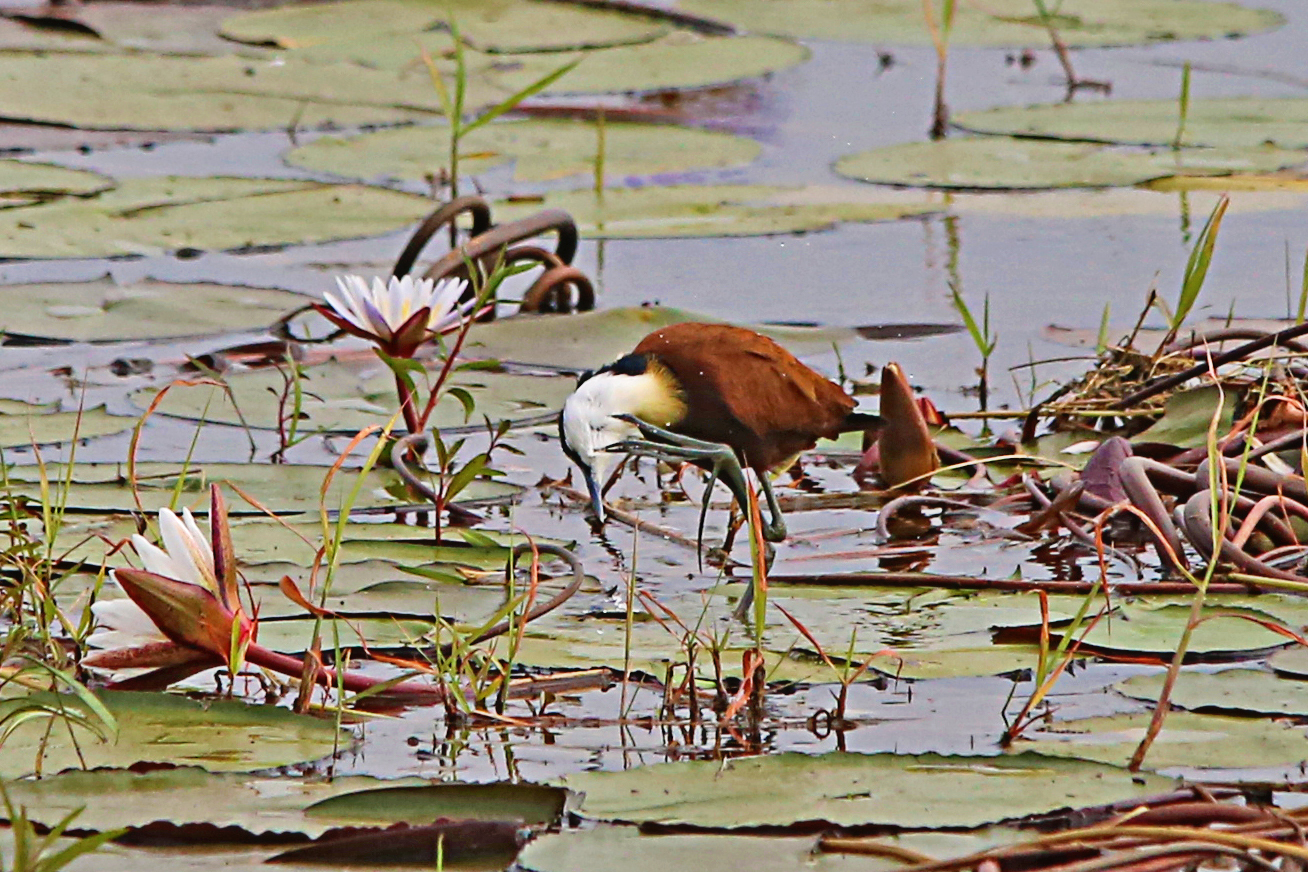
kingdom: Animalia
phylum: Chordata
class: Aves
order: Charadriiformes
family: Jacanidae
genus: Actophilornis
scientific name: Actophilornis africanus
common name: African jacana
